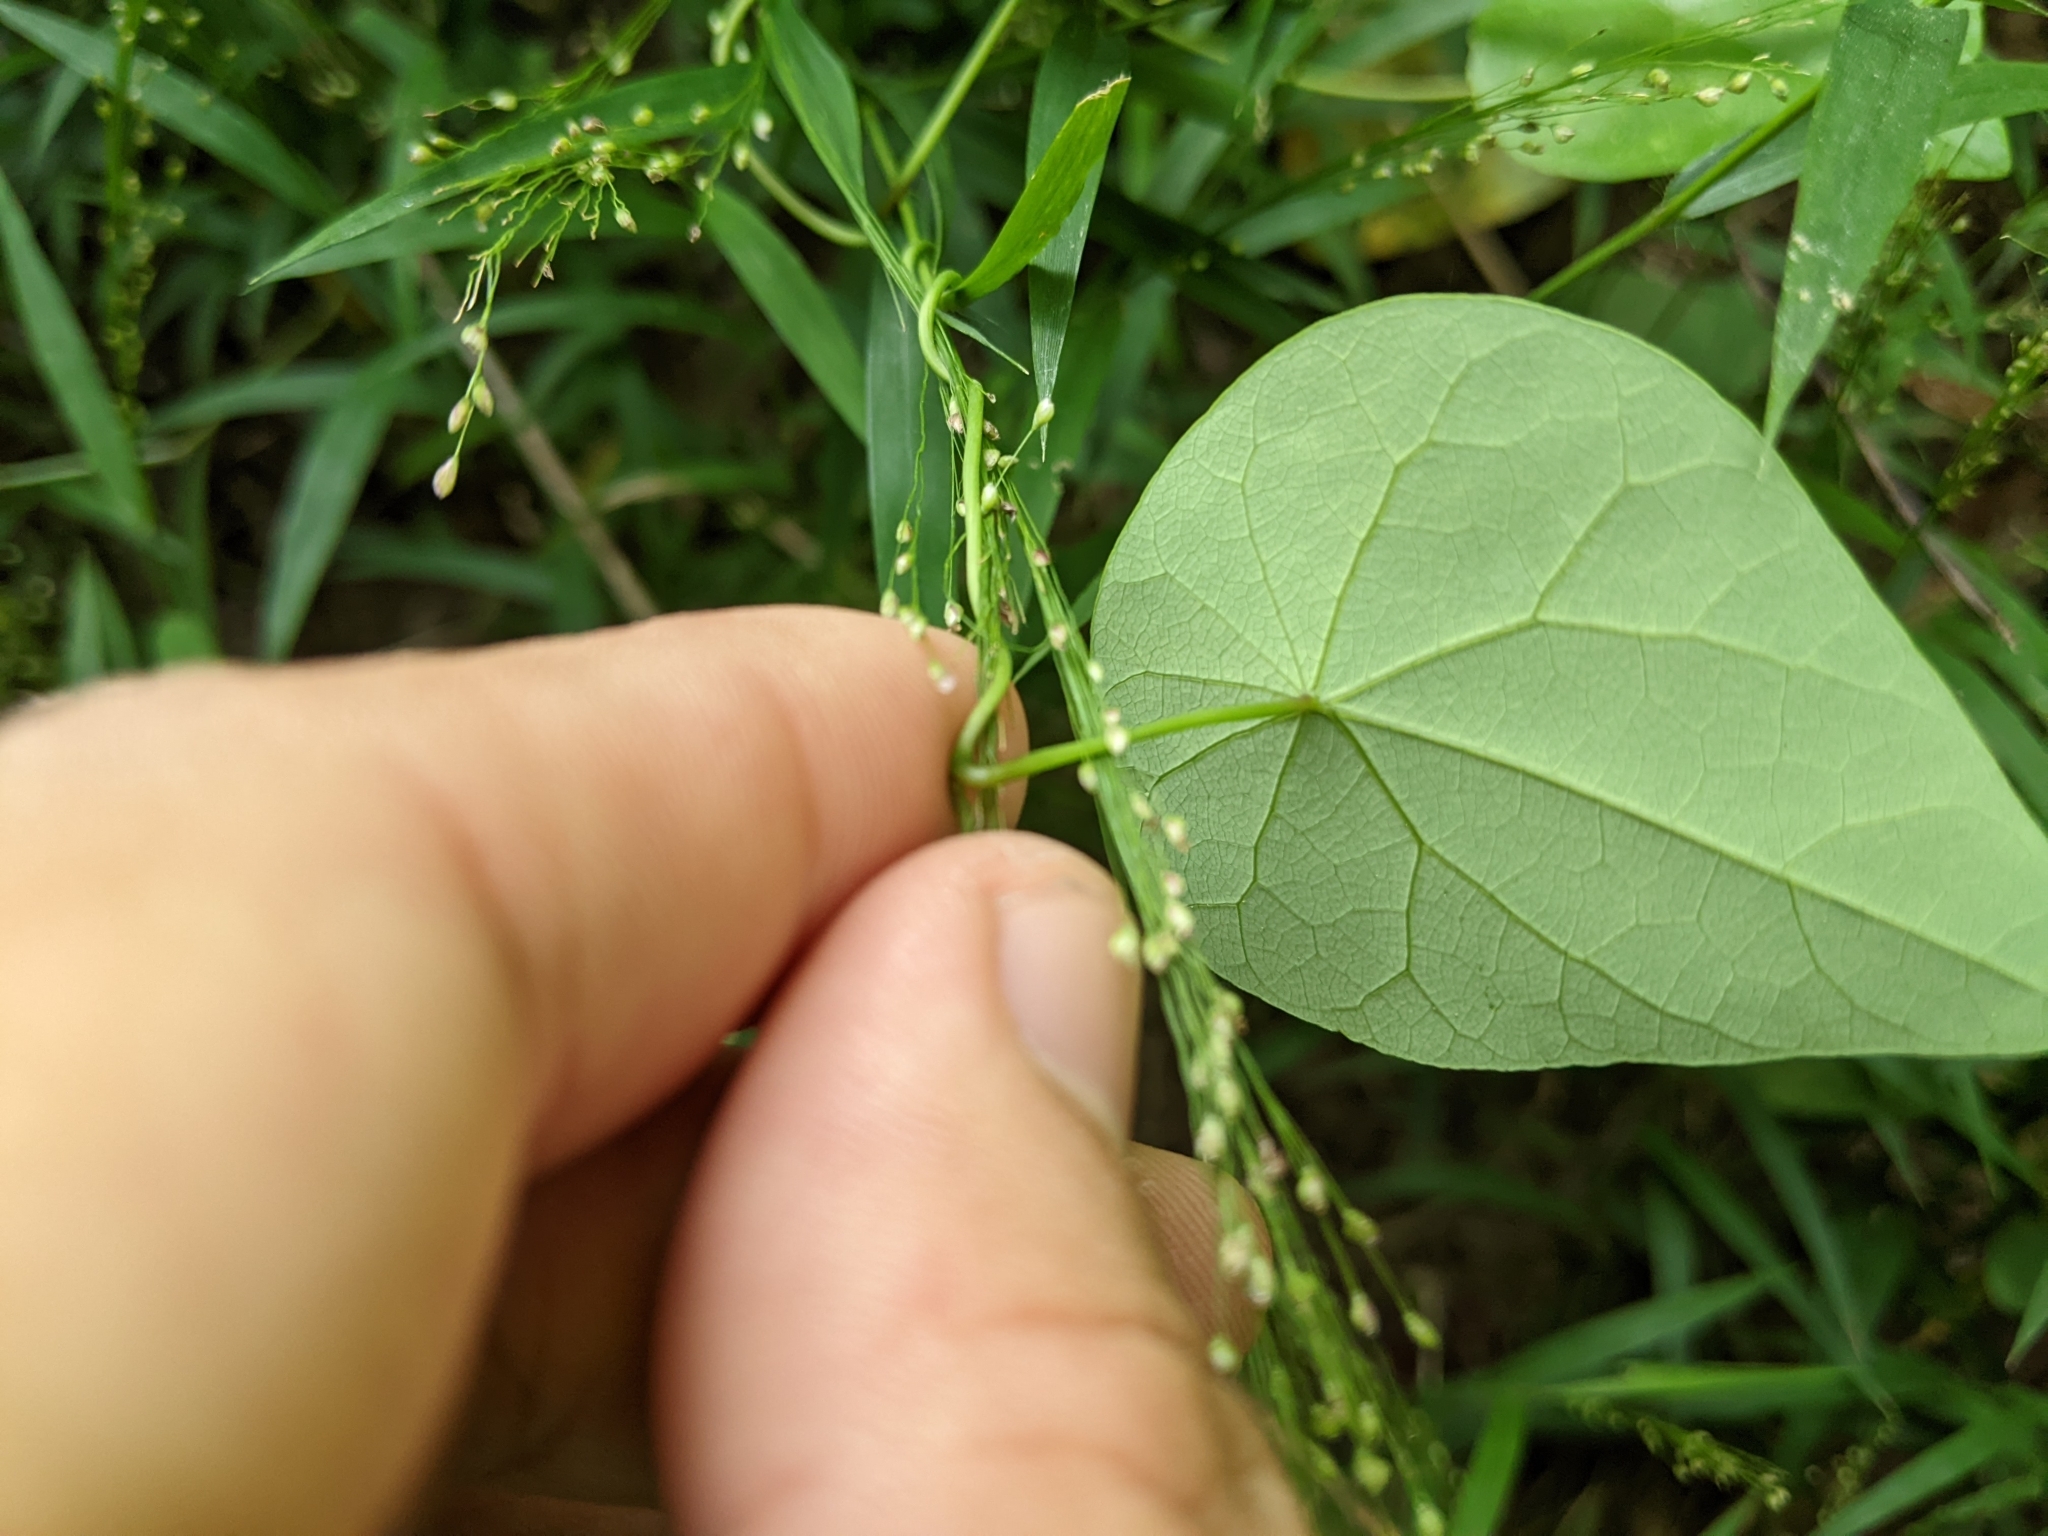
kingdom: Plantae
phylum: Tracheophyta
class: Magnoliopsida
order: Ranunculales
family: Menispermaceae
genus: Stephania
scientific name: Stephania japonica
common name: Snake vine
